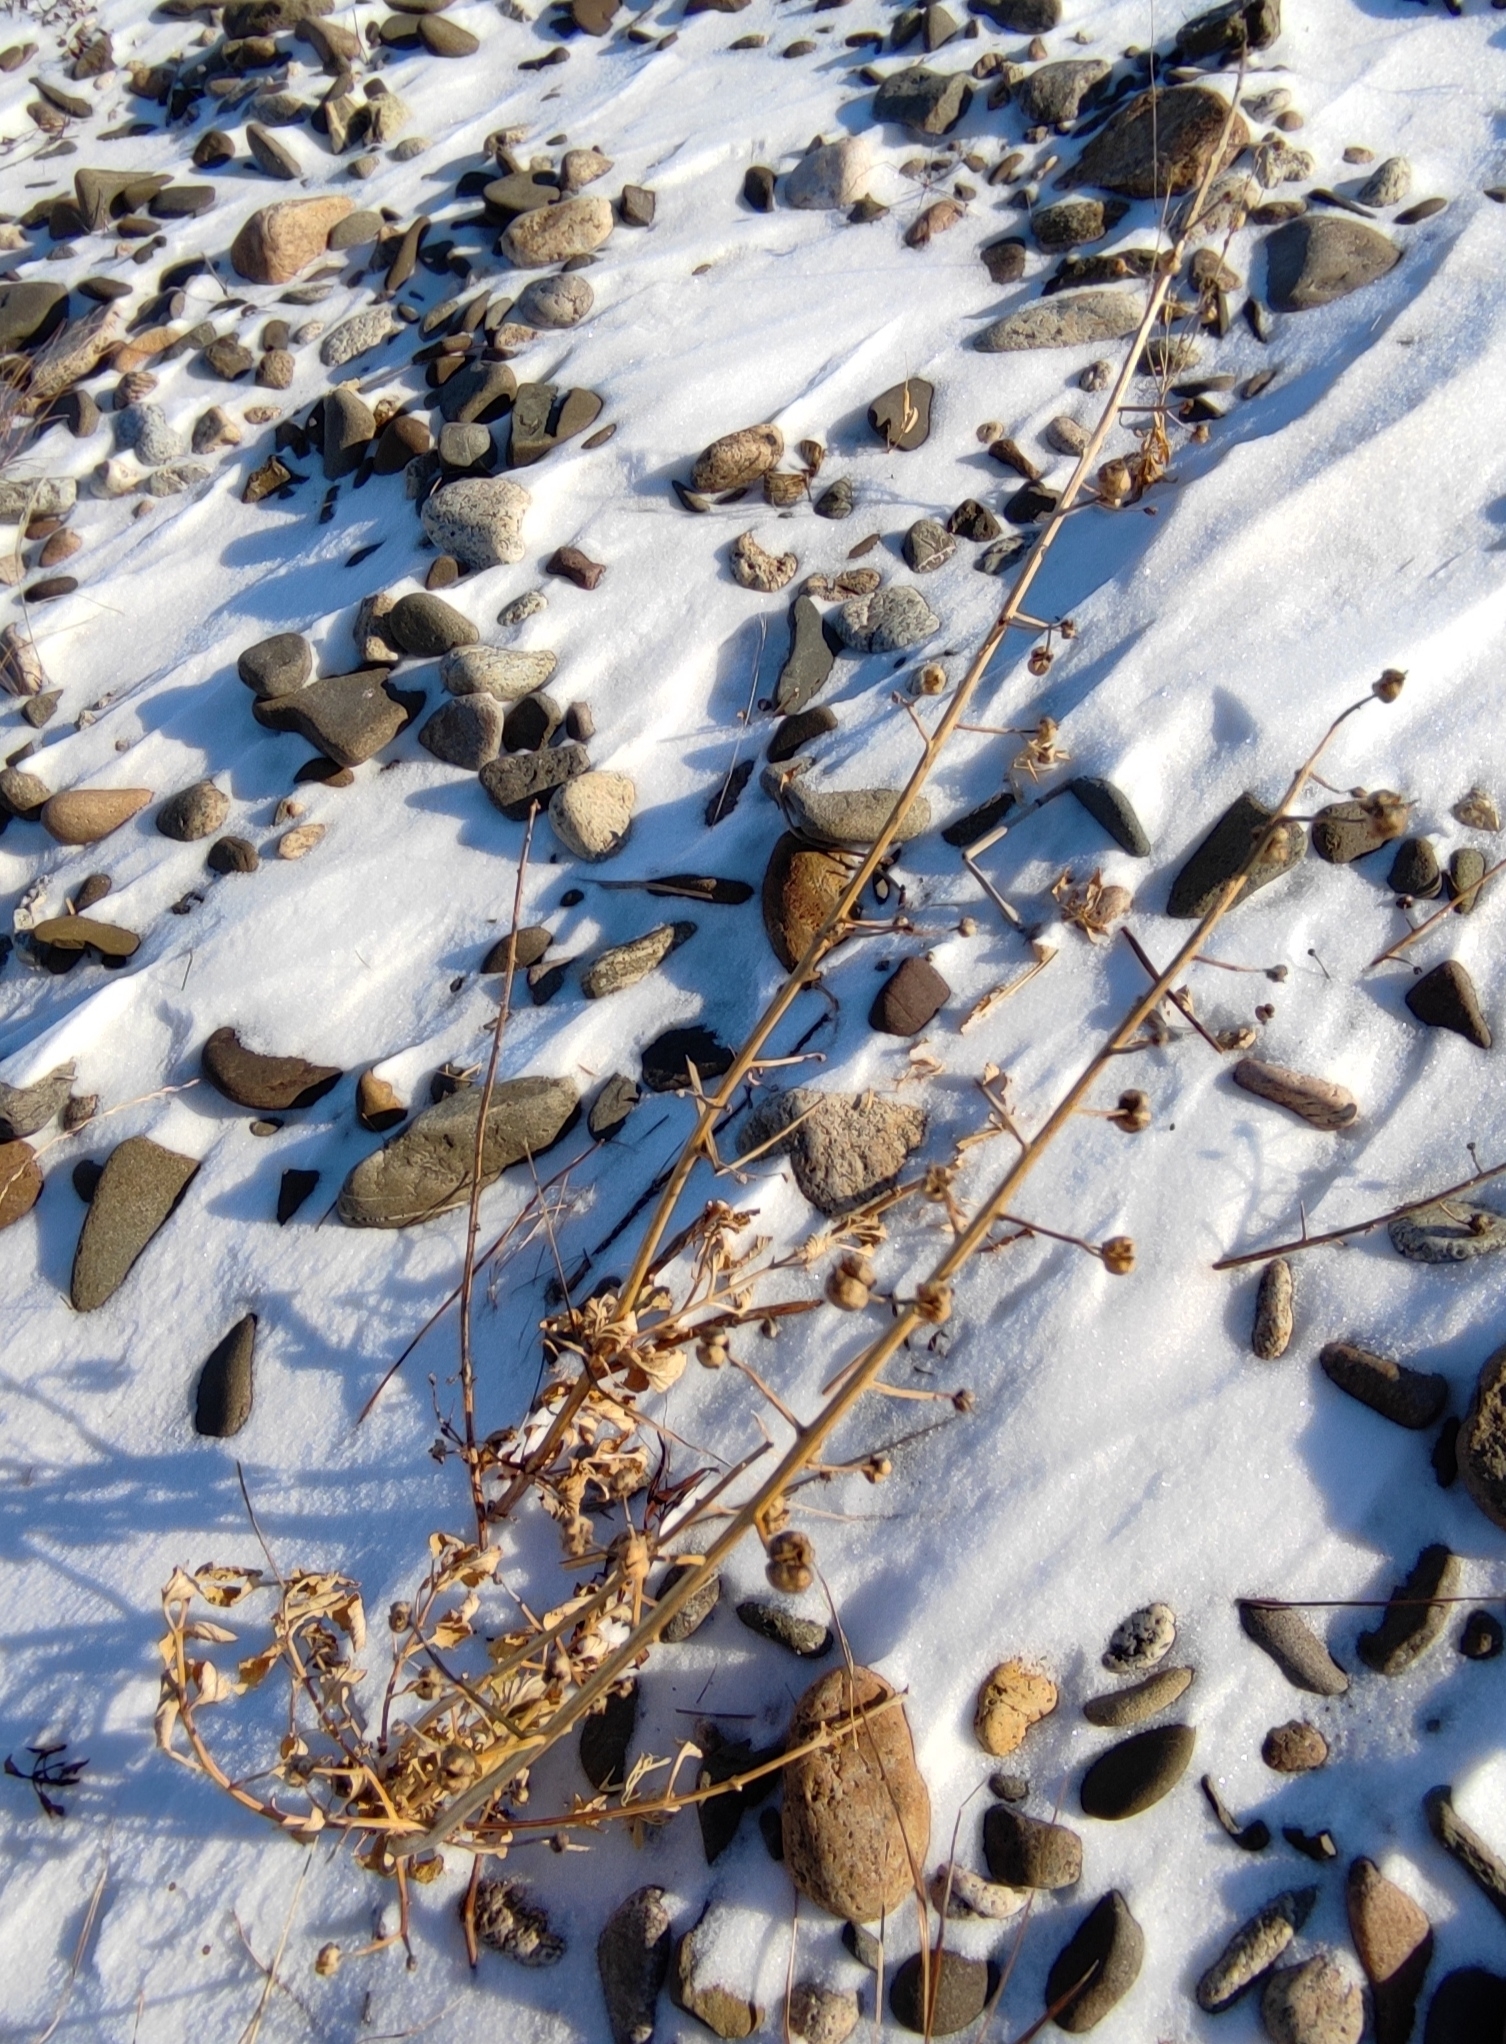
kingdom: Plantae
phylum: Tracheophyta
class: Magnoliopsida
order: Lamiales
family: Scrophulariaceae
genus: Scrophularia
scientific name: Scrophularia incisa
